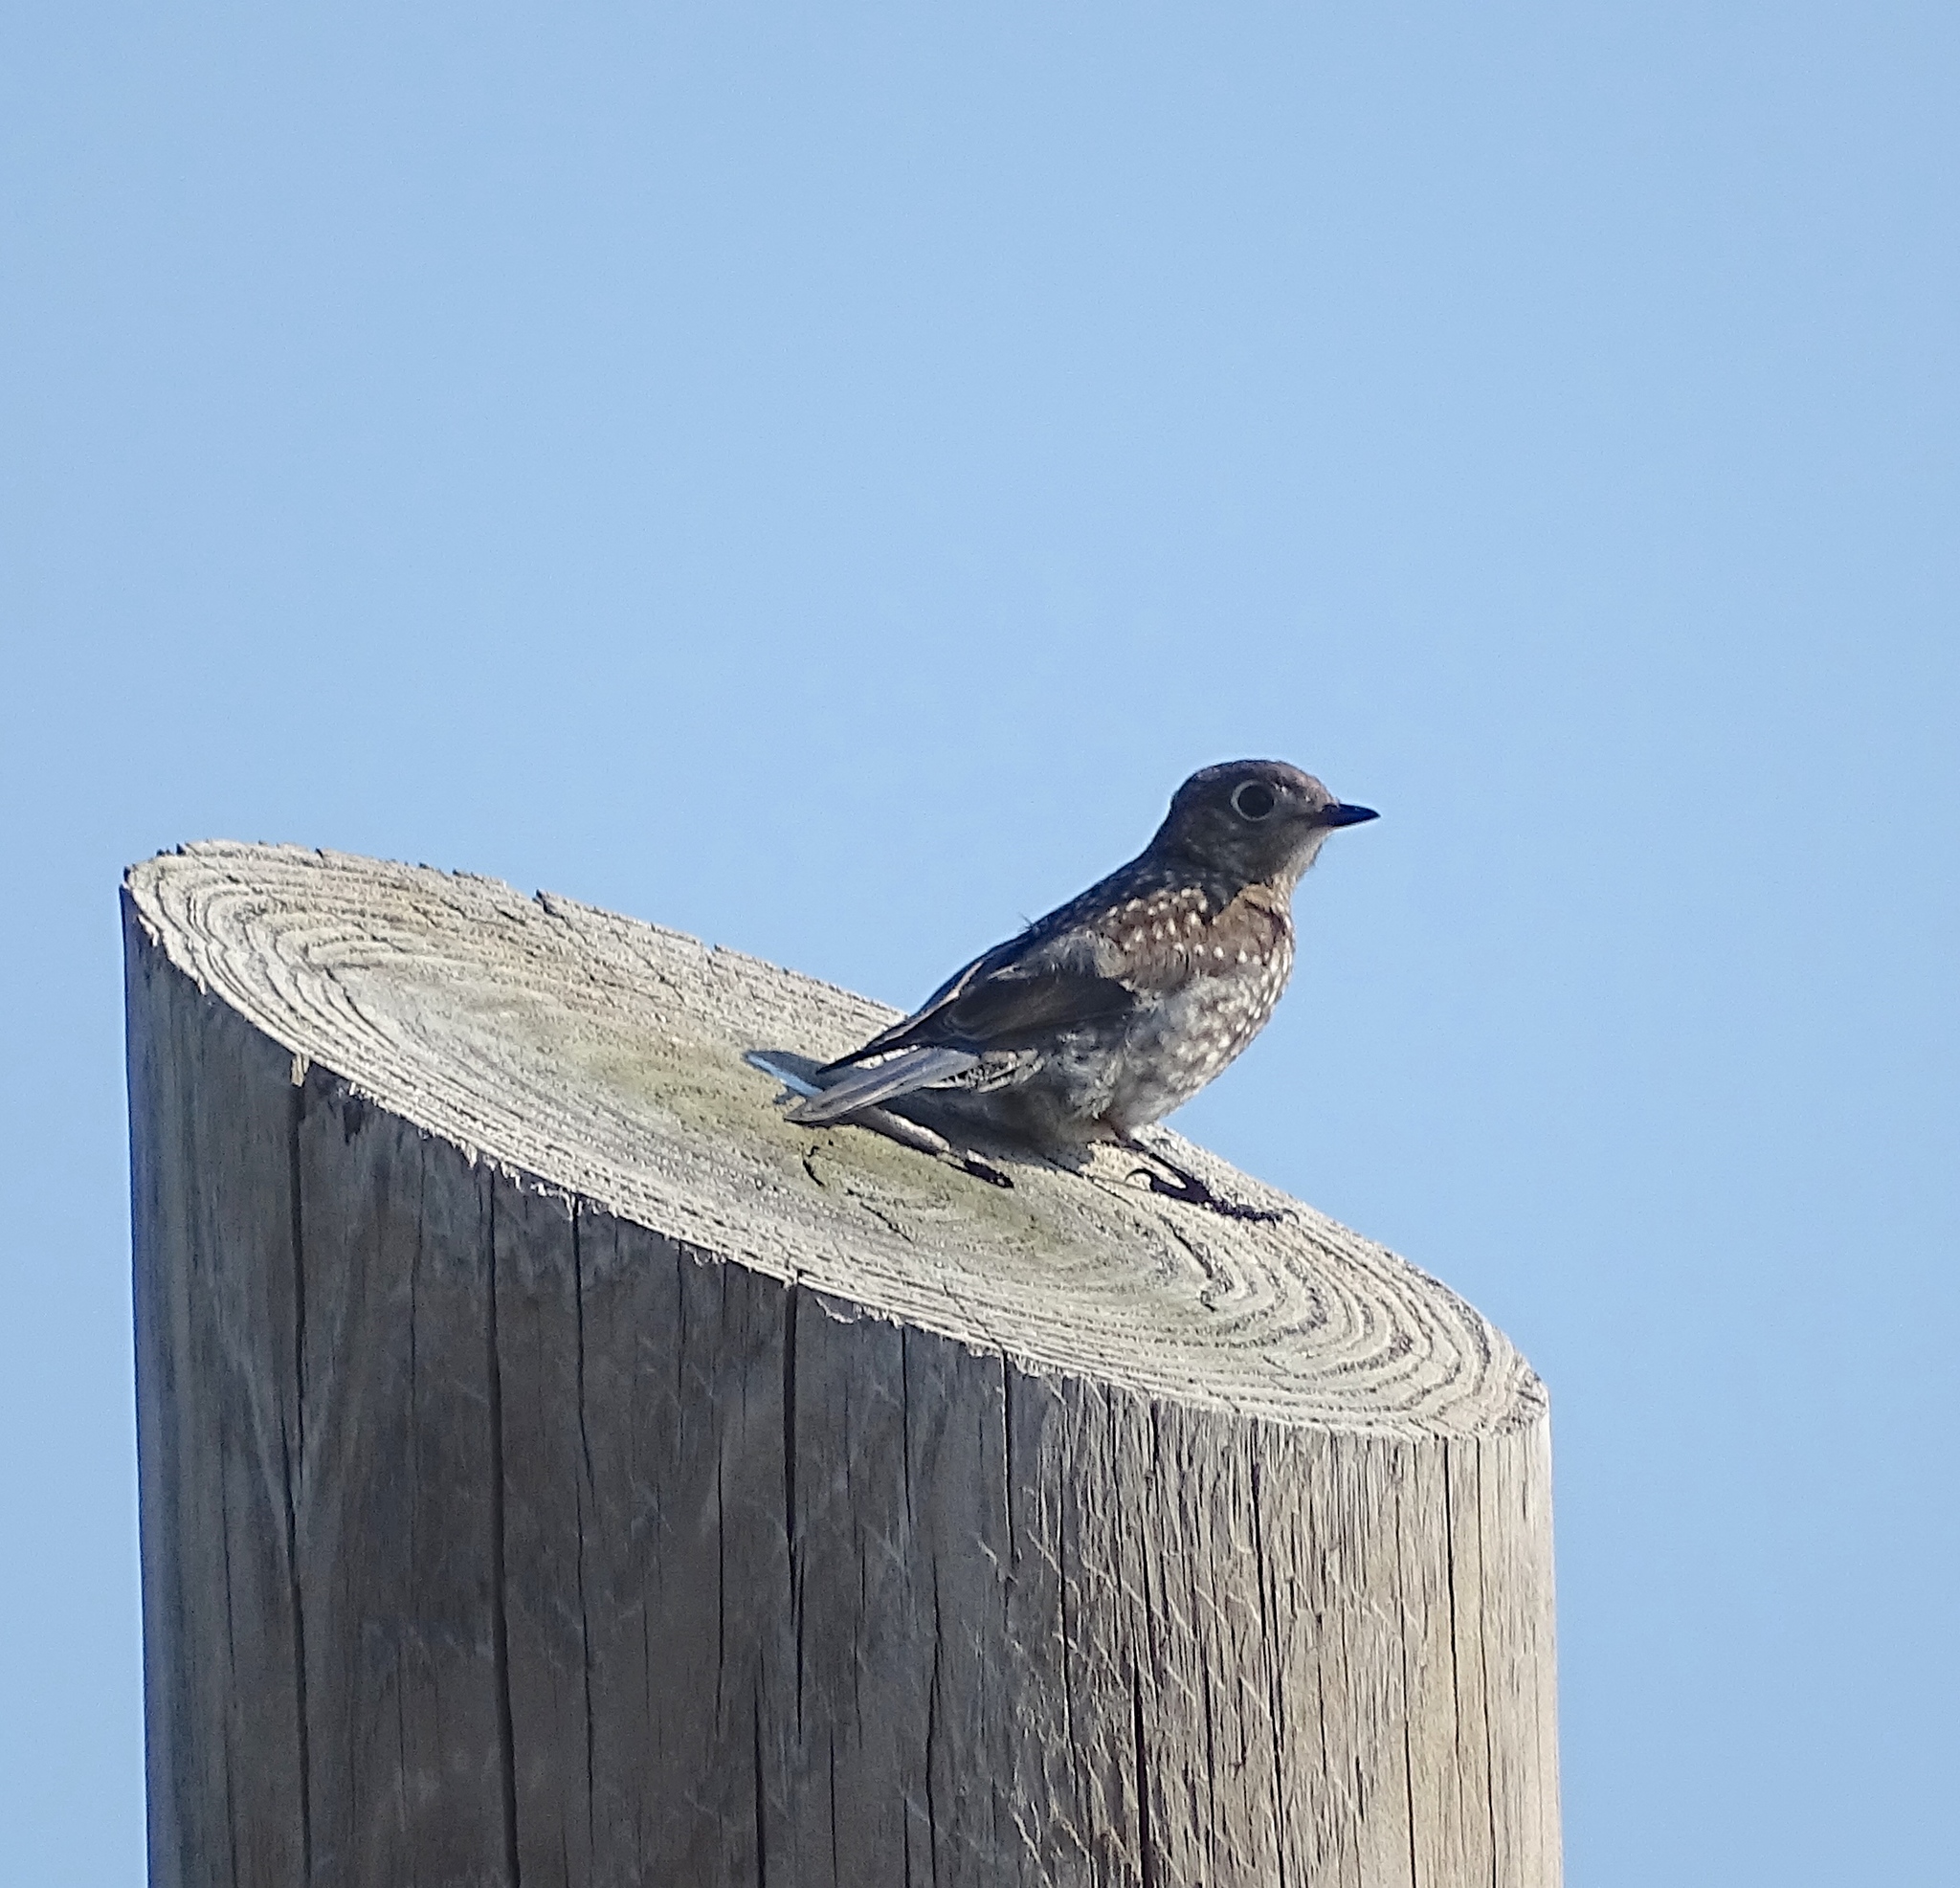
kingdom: Animalia
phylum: Chordata
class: Aves
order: Passeriformes
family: Turdidae
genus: Sialia
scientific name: Sialia sialis
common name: Eastern bluebird
